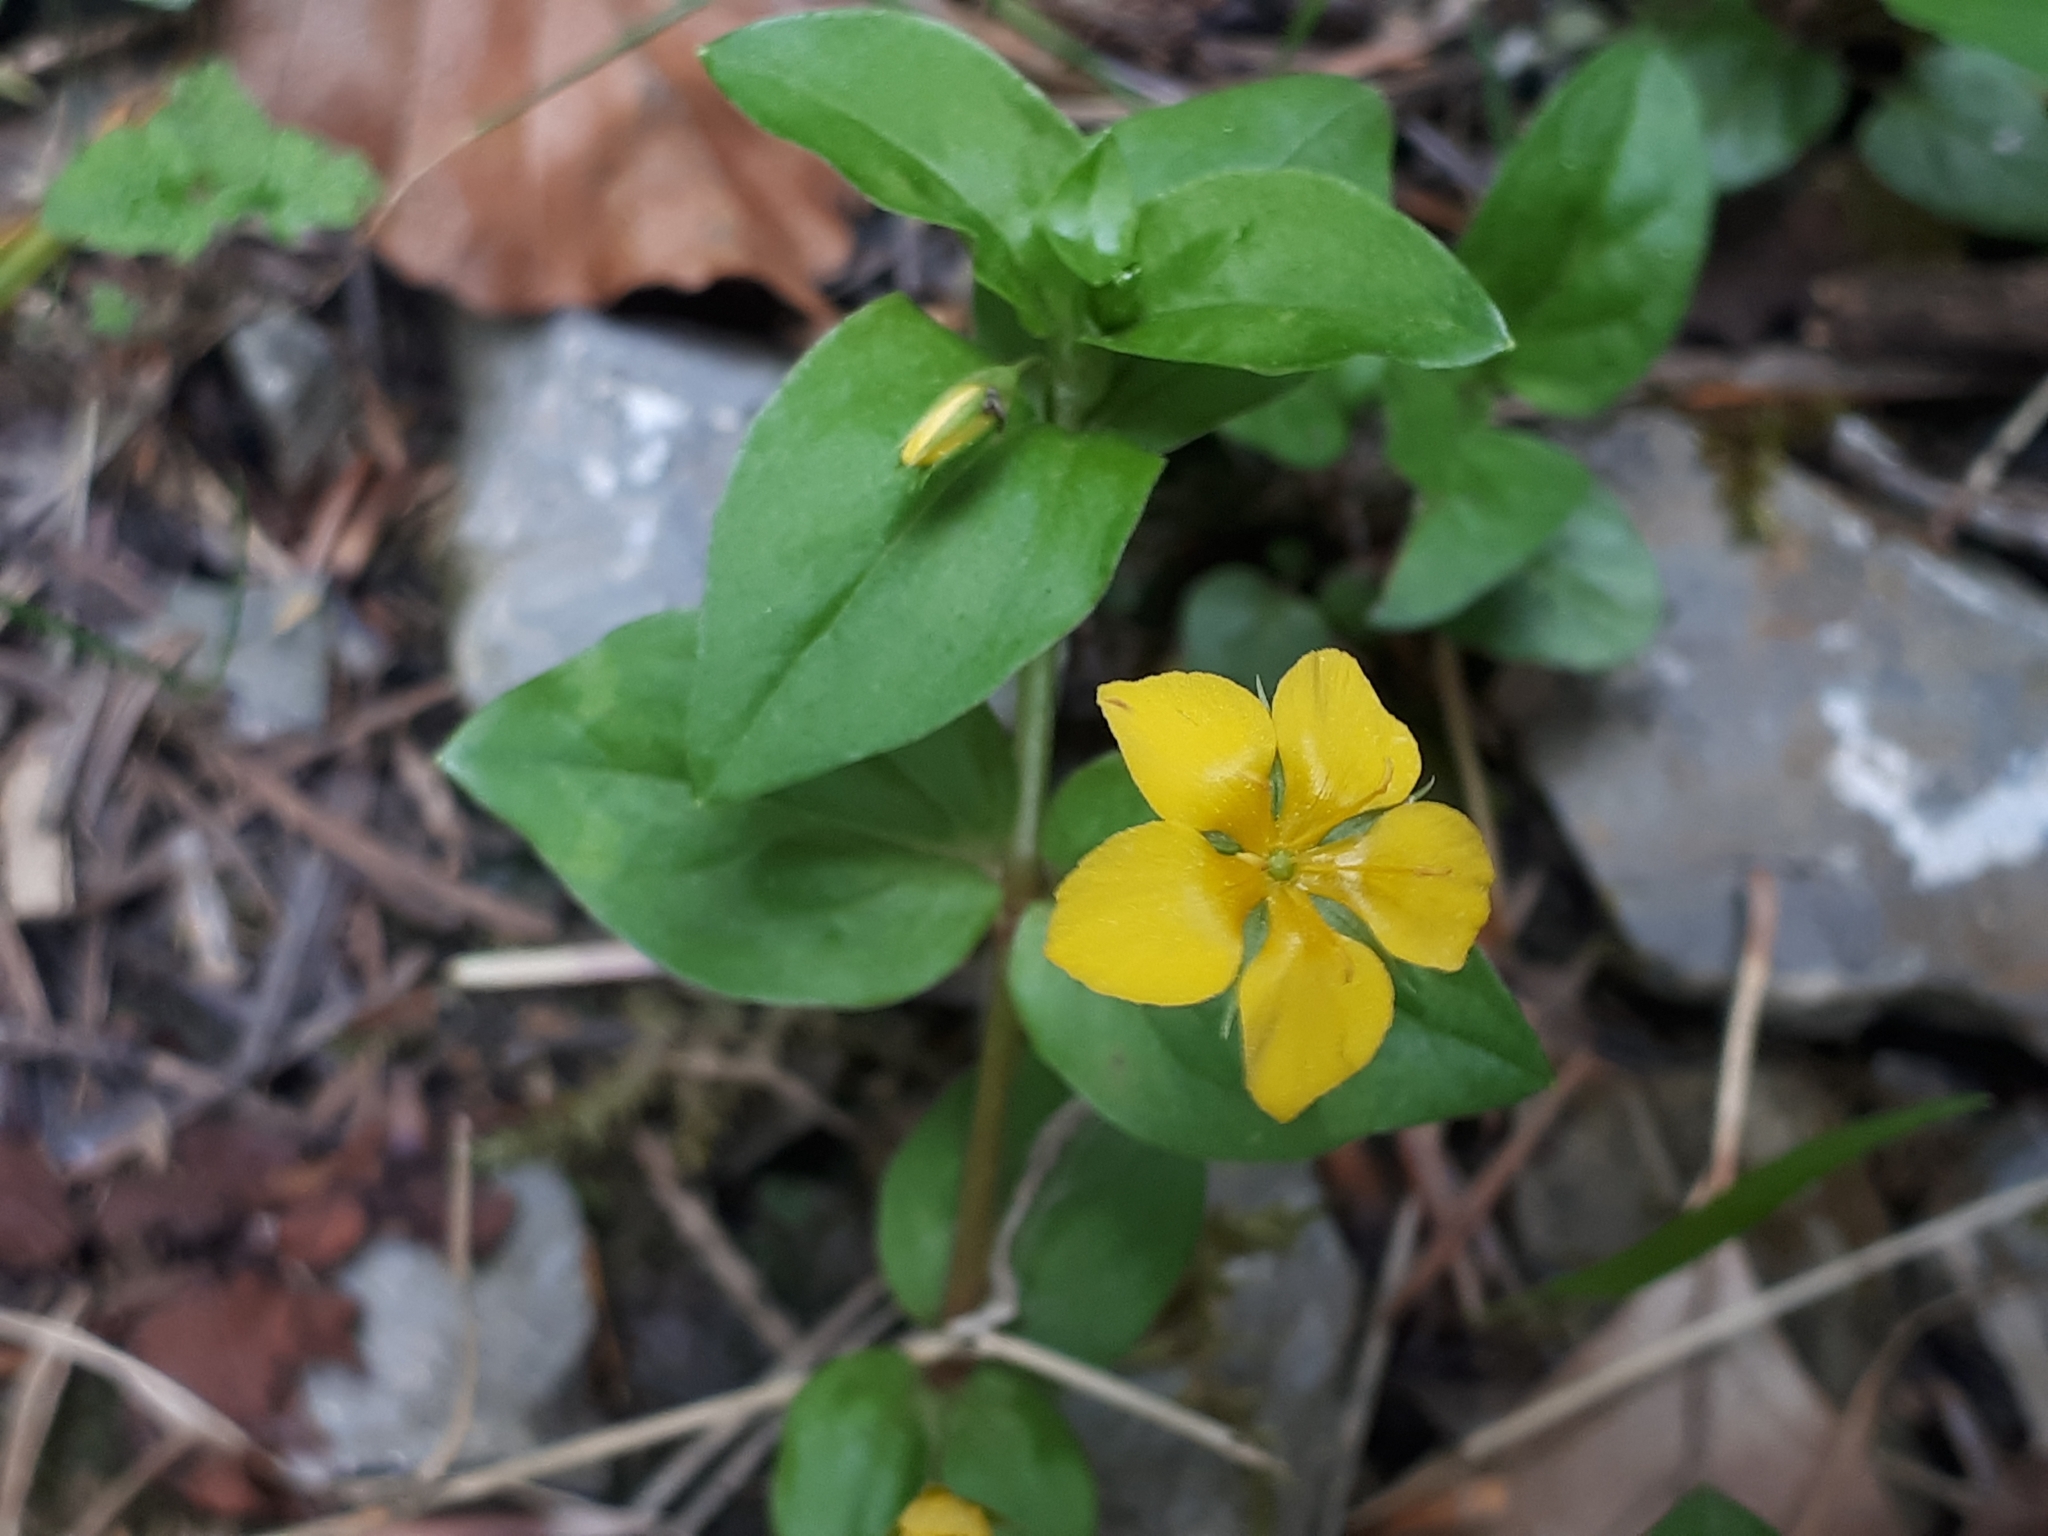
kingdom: Plantae
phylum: Tracheophyta
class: Magnoliopsida
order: Ericales
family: Primulaceae
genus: Lysimachia
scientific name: Lysimachia nemorum
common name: Yellow pimpernel
